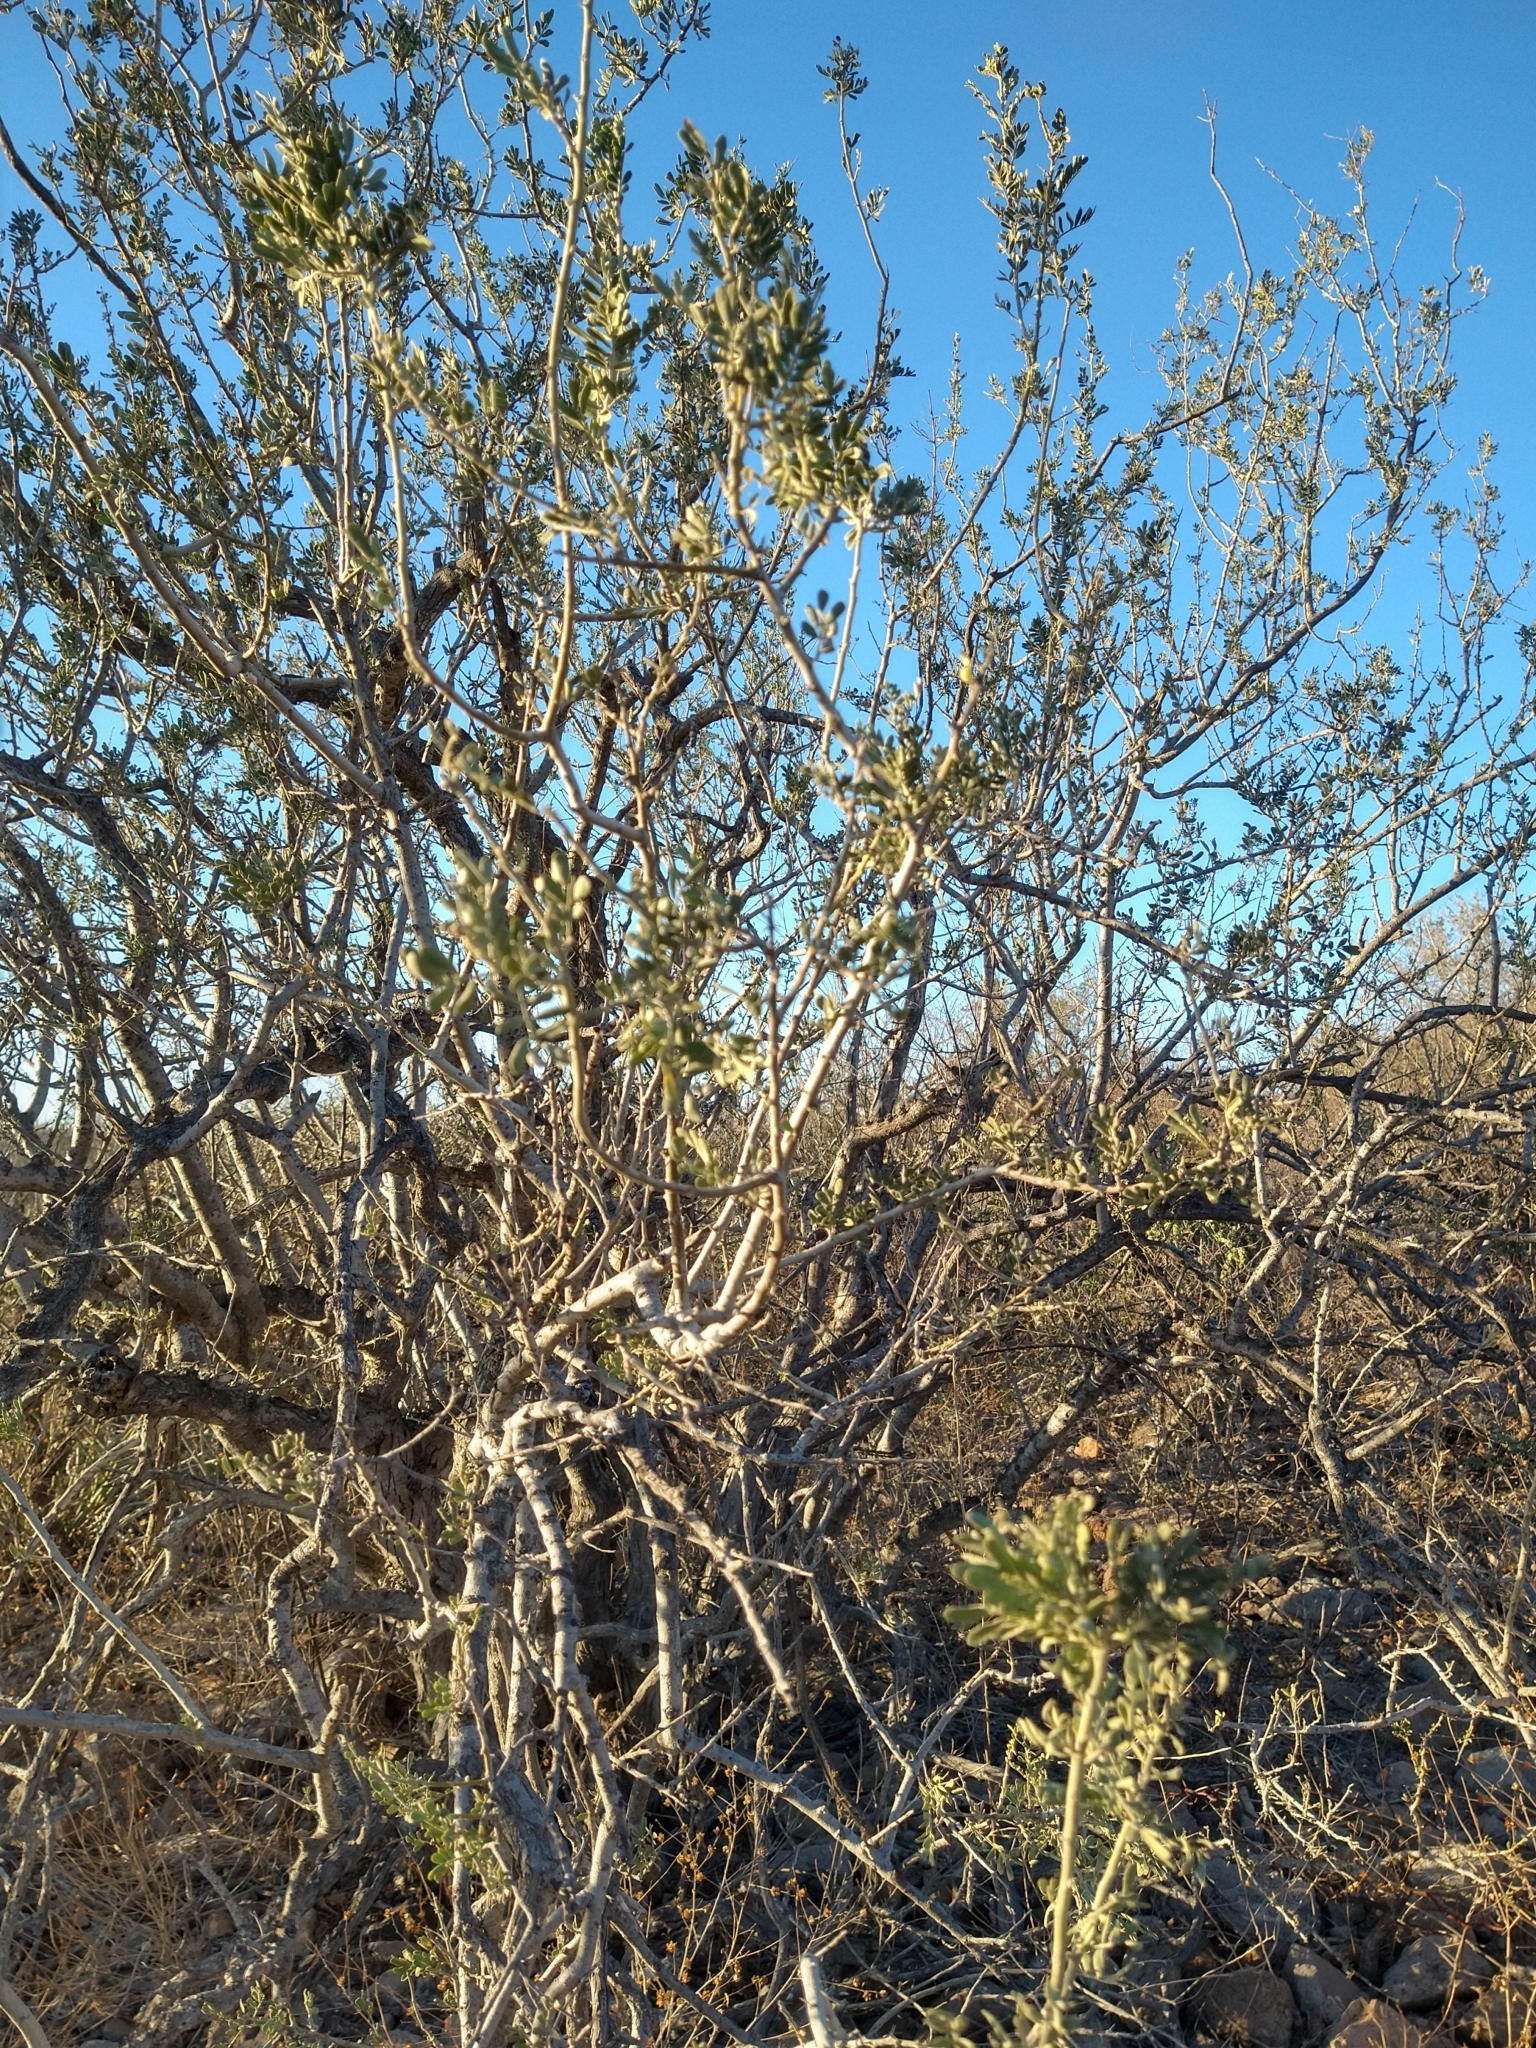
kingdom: Plantae
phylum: Tracheophyta
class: Magnoliopsida
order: Fabales
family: Fabaceae
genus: Olneya
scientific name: Olneya tesota
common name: Desert ironwood
